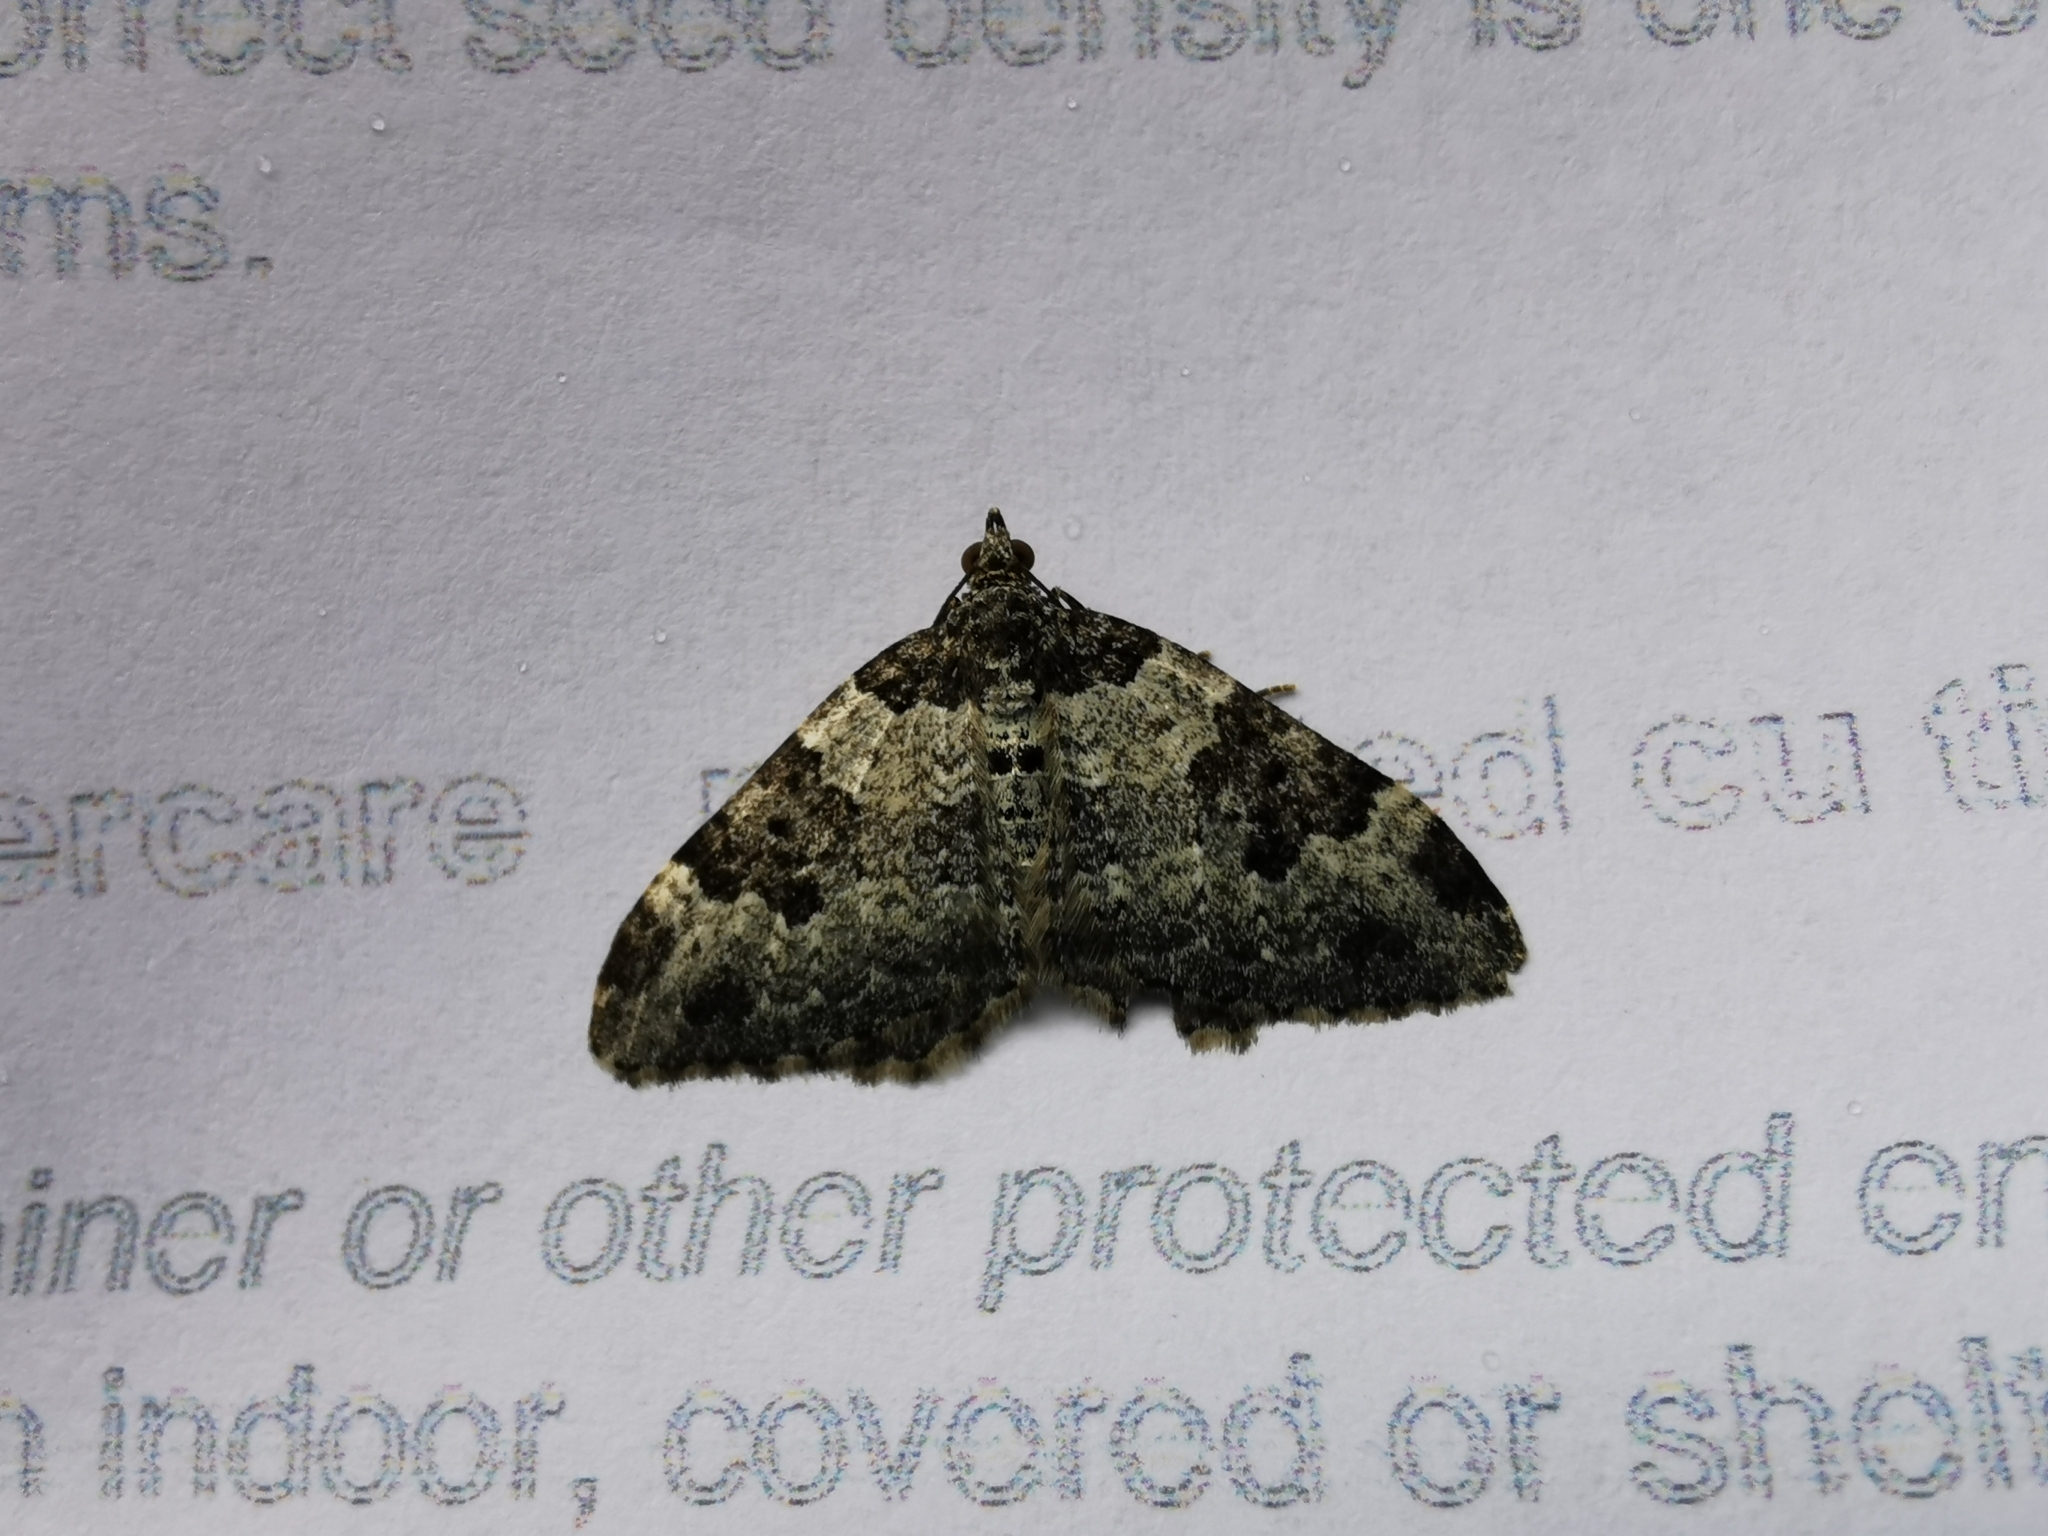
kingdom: Animalia
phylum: Arthropoda
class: Insecta
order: Lepidoptera
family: Geometridae
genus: Xanthorhoe
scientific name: Xanthorhoe fluctuata
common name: Garden carpet
